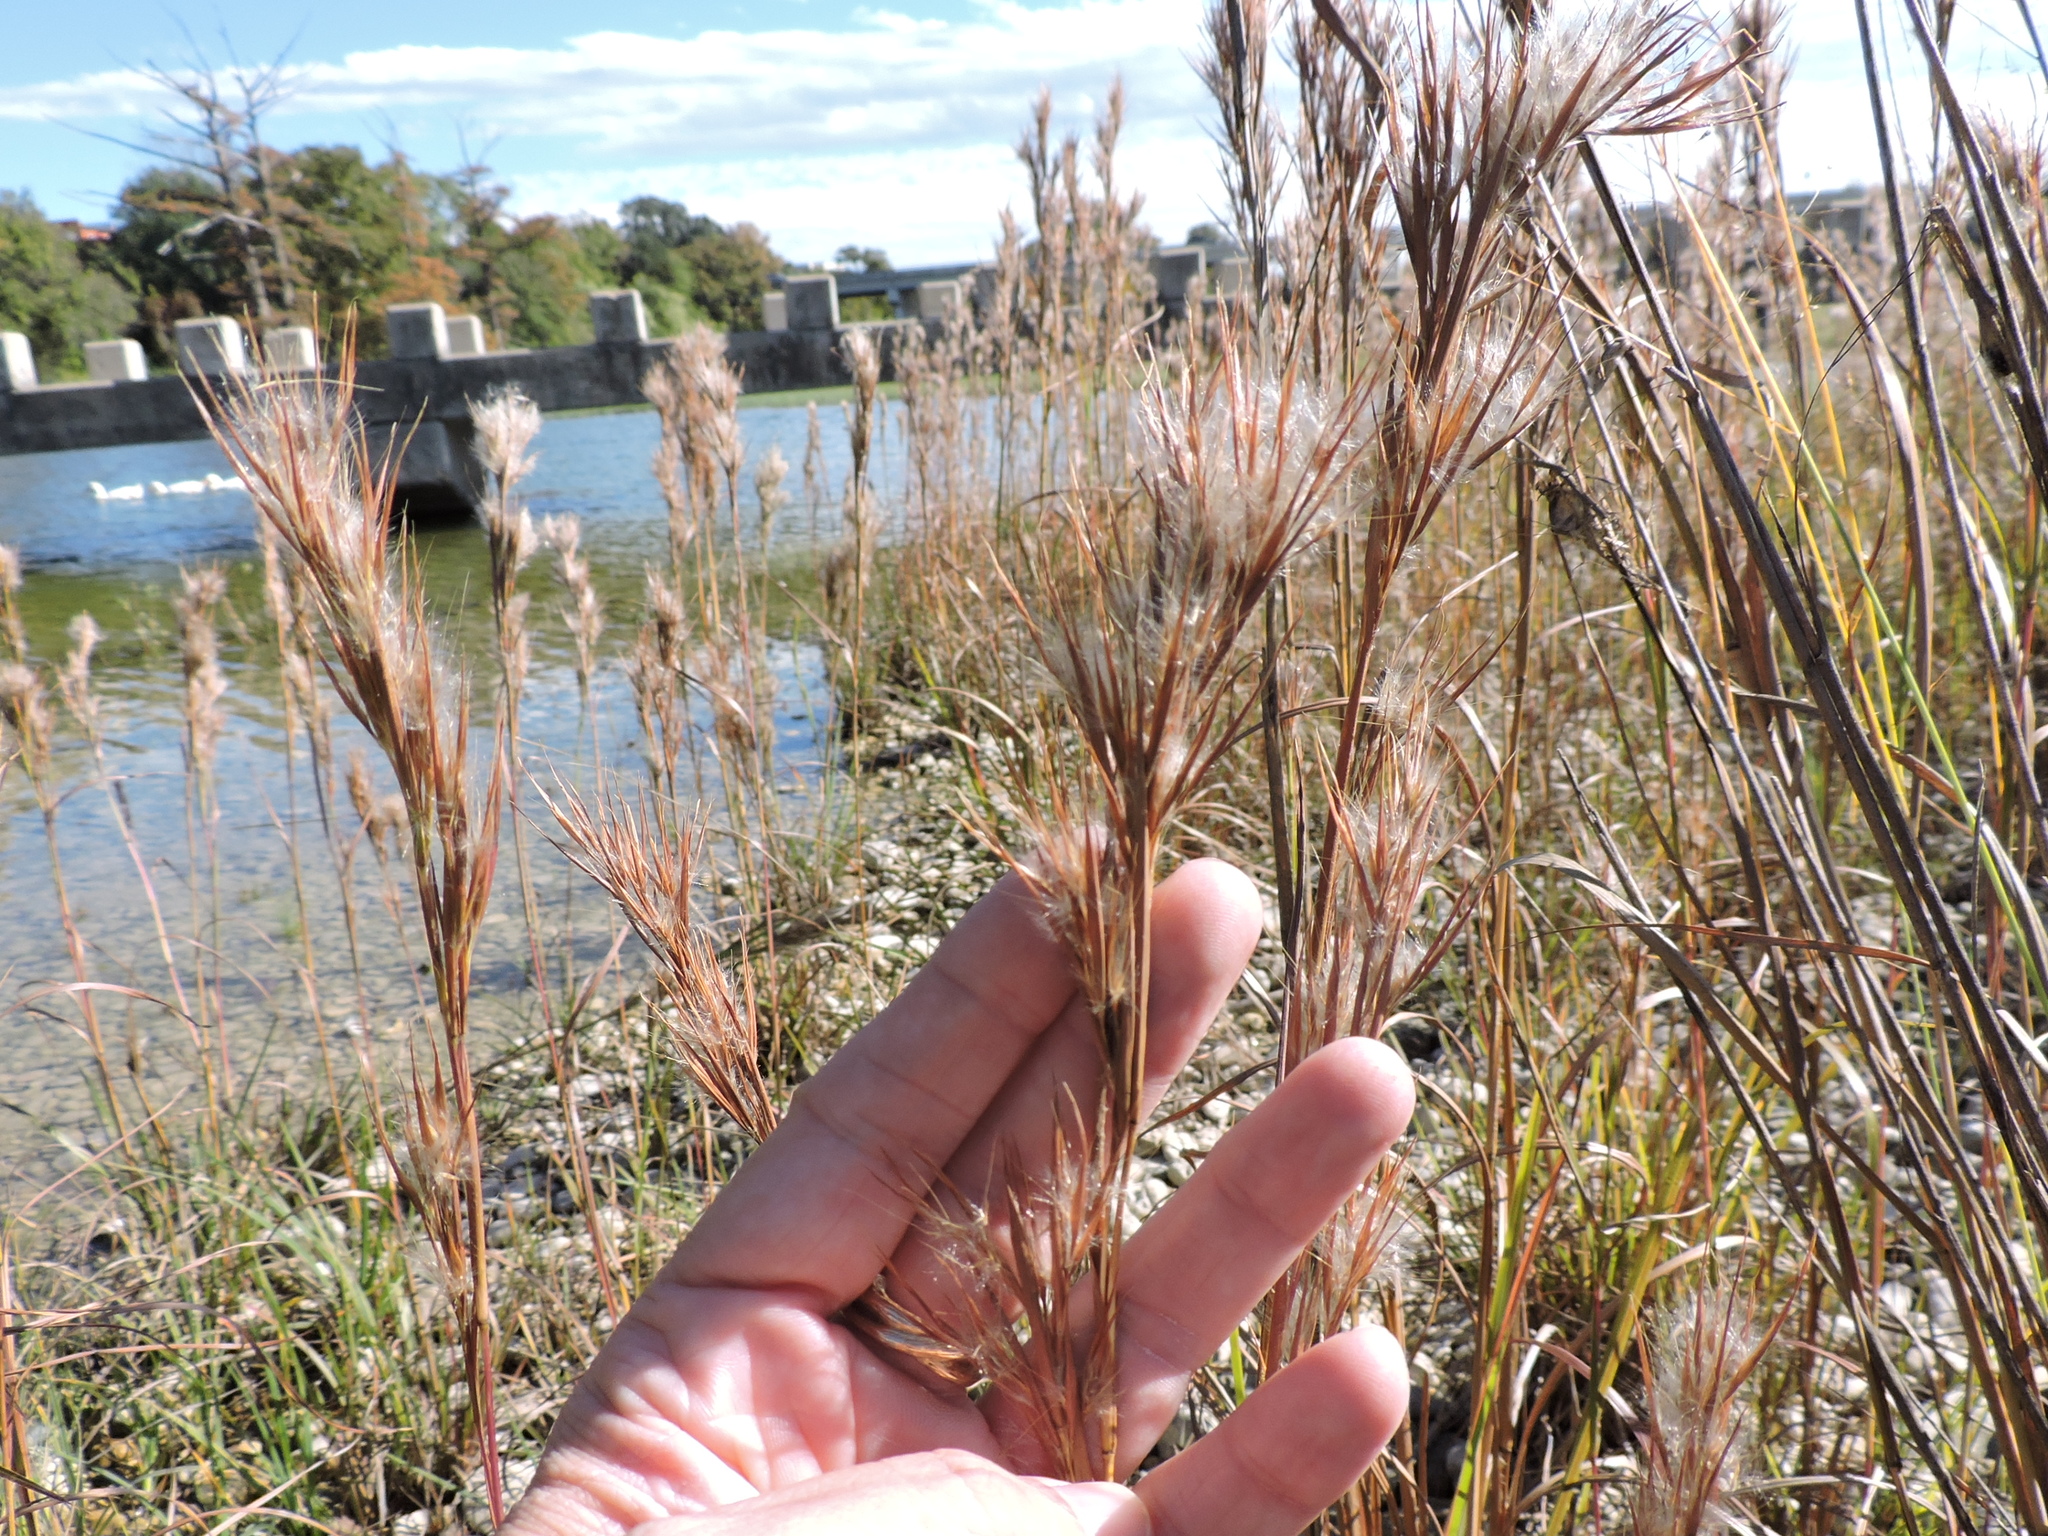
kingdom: Plantae
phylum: Tracheophyta
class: Liliopsida
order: Poales
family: Poaceae
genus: Andropogon
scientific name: Andropogon tenuispatheus
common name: Bushy bluestem
